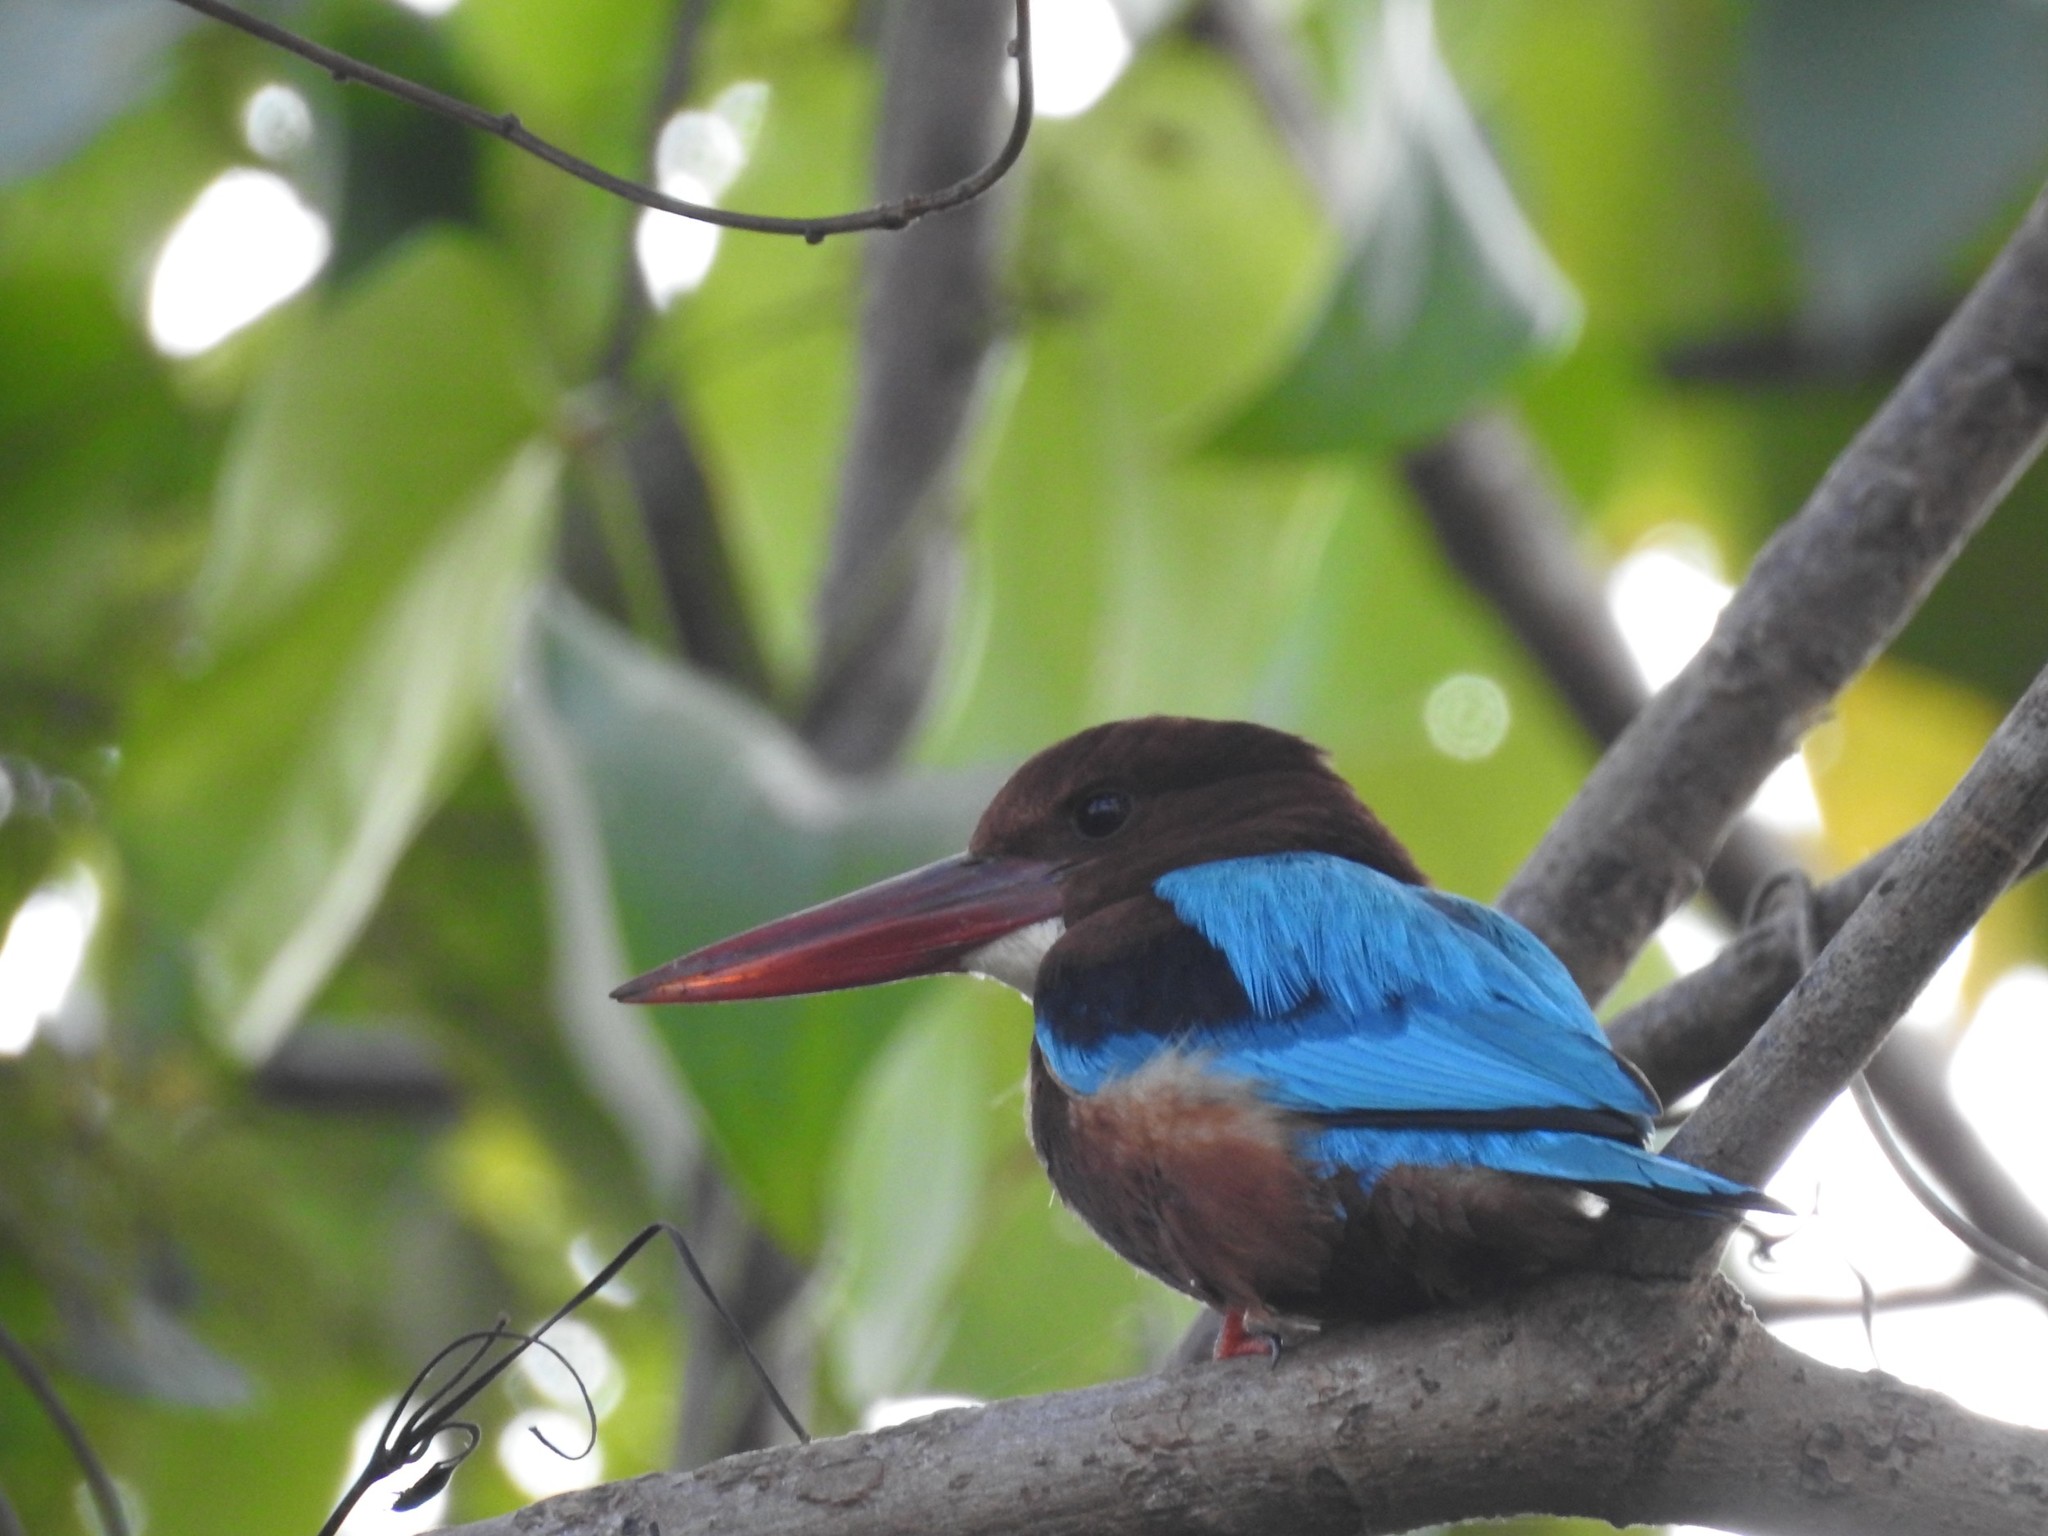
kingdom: Animalia
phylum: Chordata
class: Aves
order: Coraciiformes
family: Alcedinidae
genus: Halcyon
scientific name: Halcyon smyrnensis
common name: White-throated kingfisher
